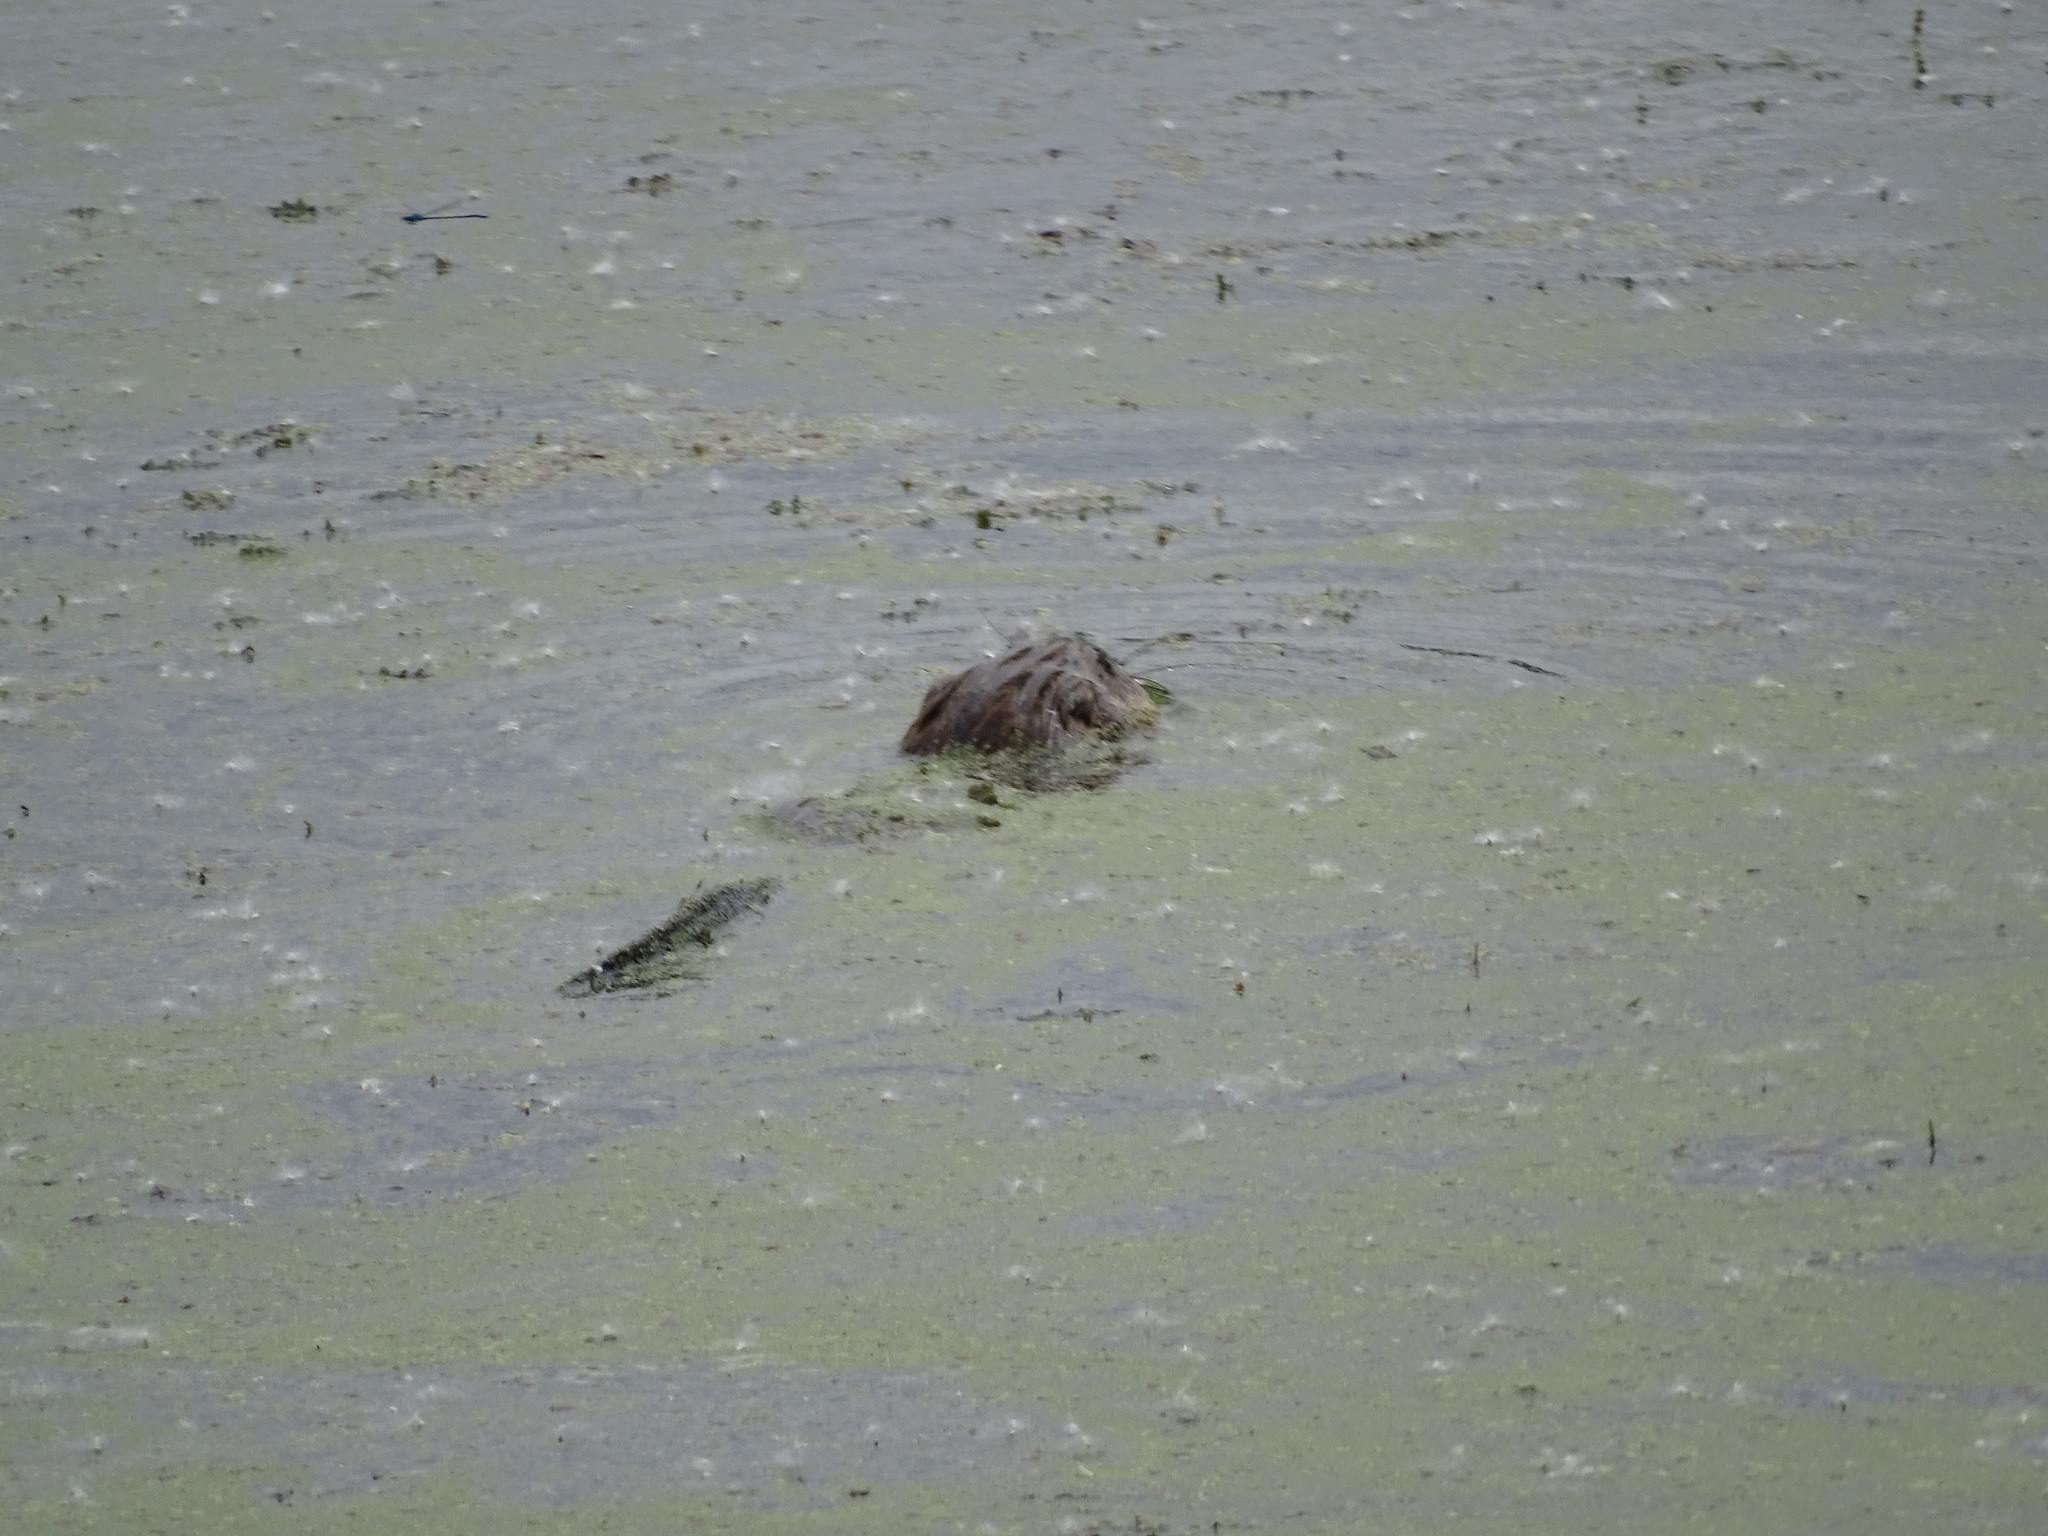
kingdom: Animalia
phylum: Chordata
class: Mammalia
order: Rodentia
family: Cricetidae
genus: Ondatra
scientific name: Ondatra zibethicus
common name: Muskrat
